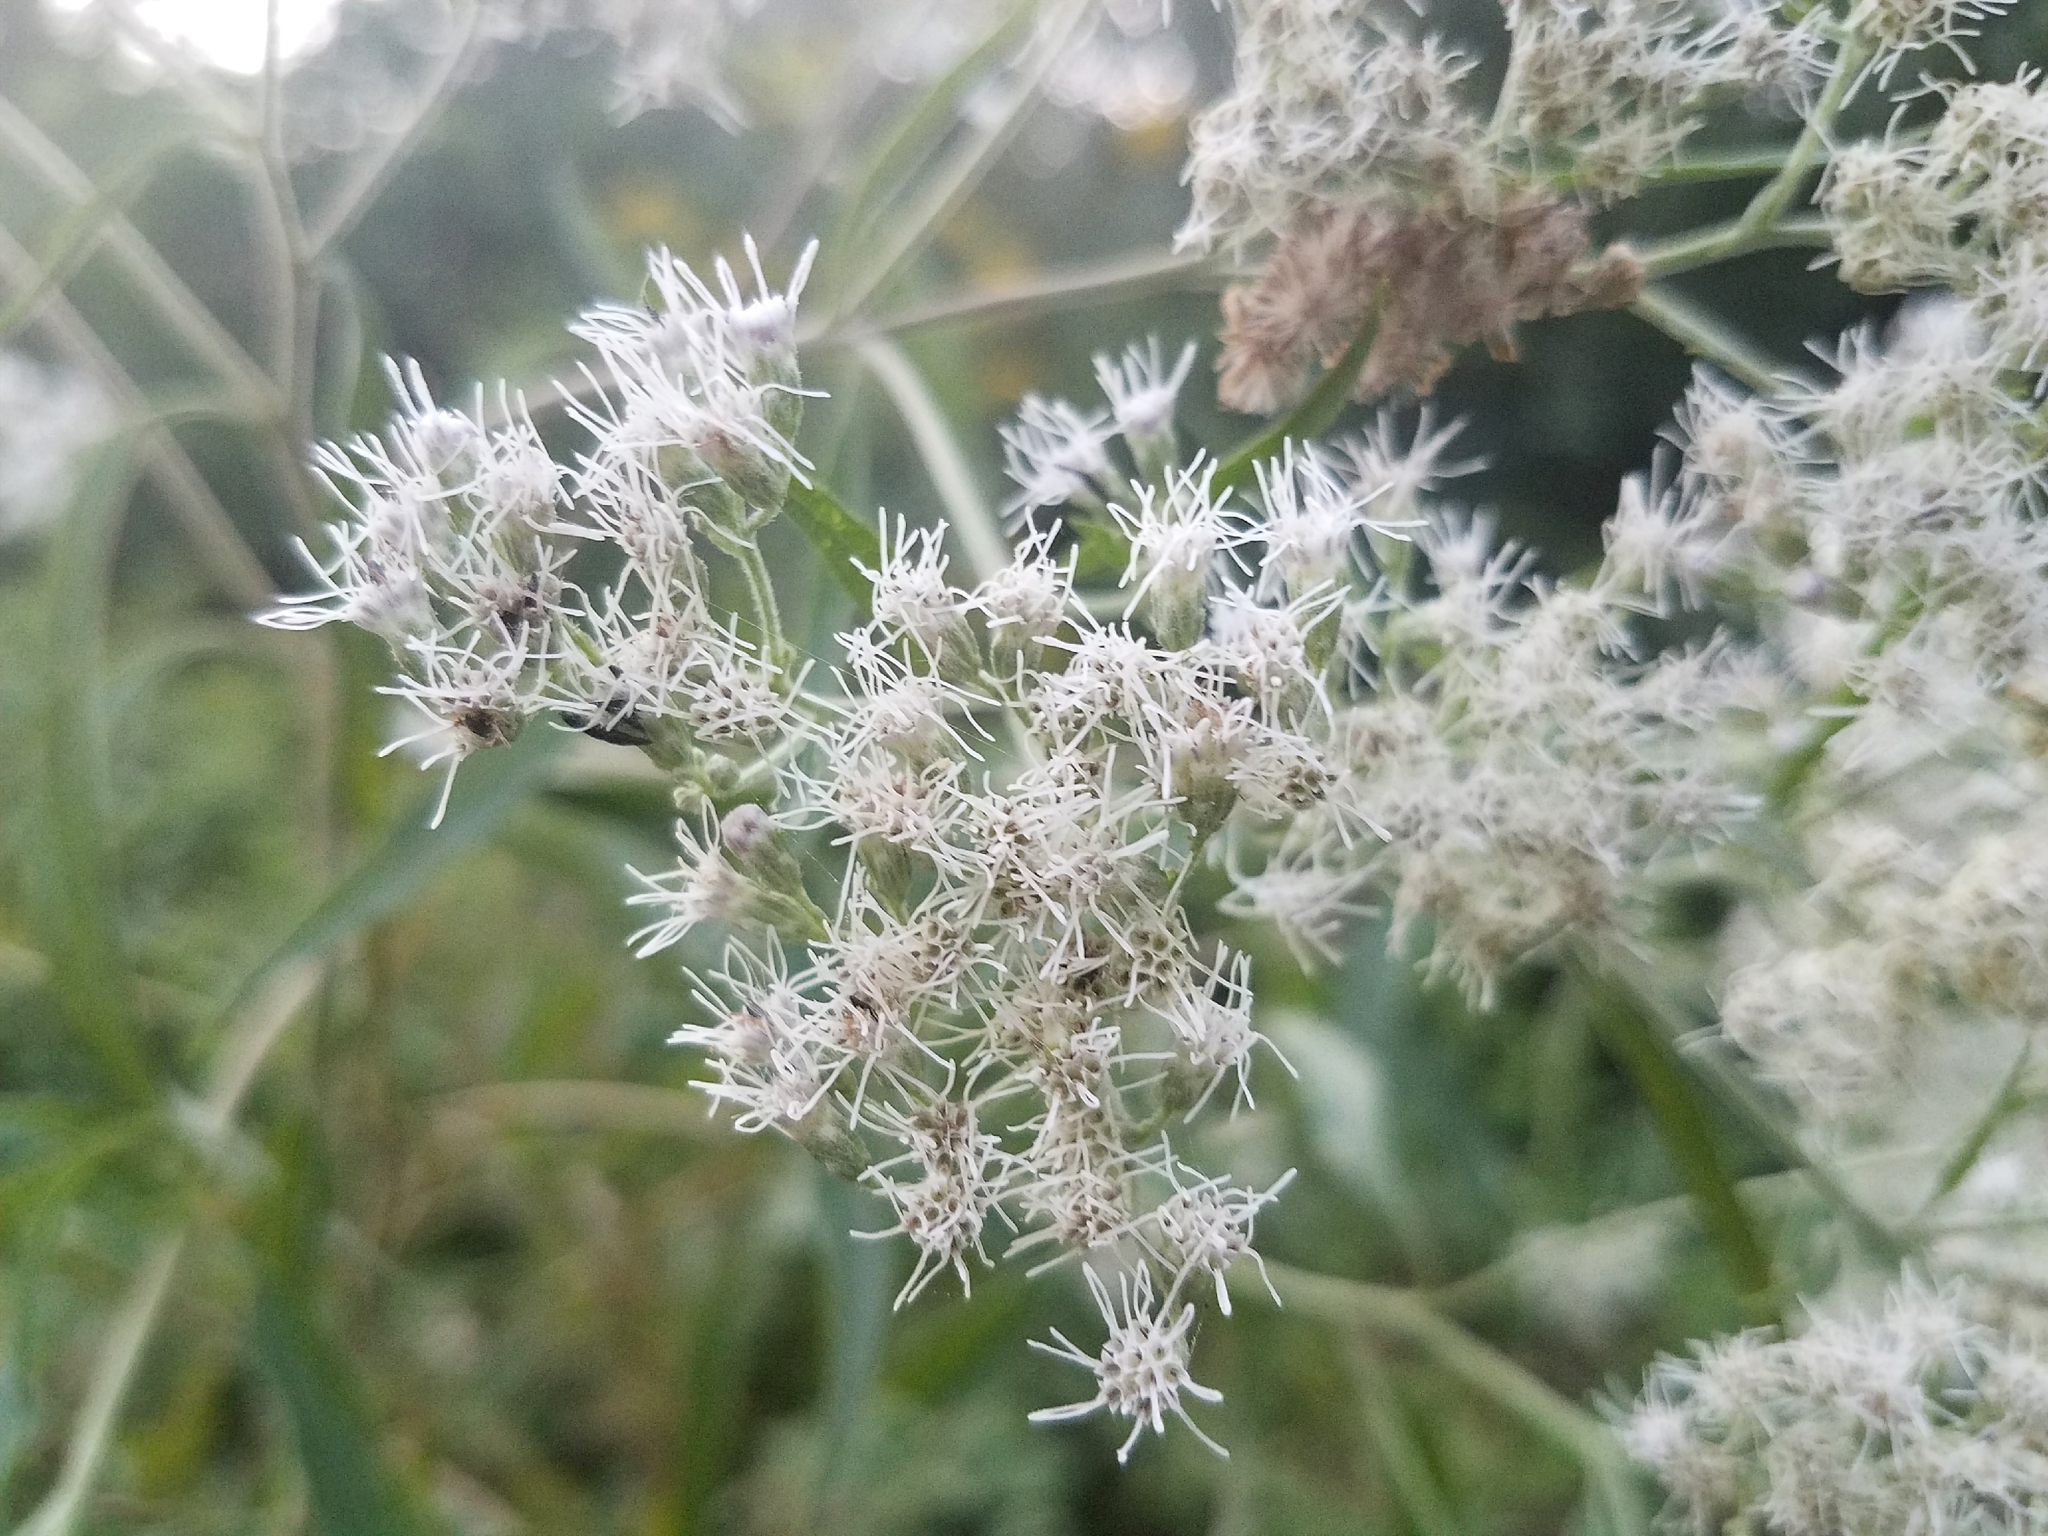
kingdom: Plantae
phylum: Tracheophyta
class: Magnoliopsida
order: Asterales
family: Asteraceae
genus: Eupatorium
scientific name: Eupatorium serotinum
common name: Late boneset
